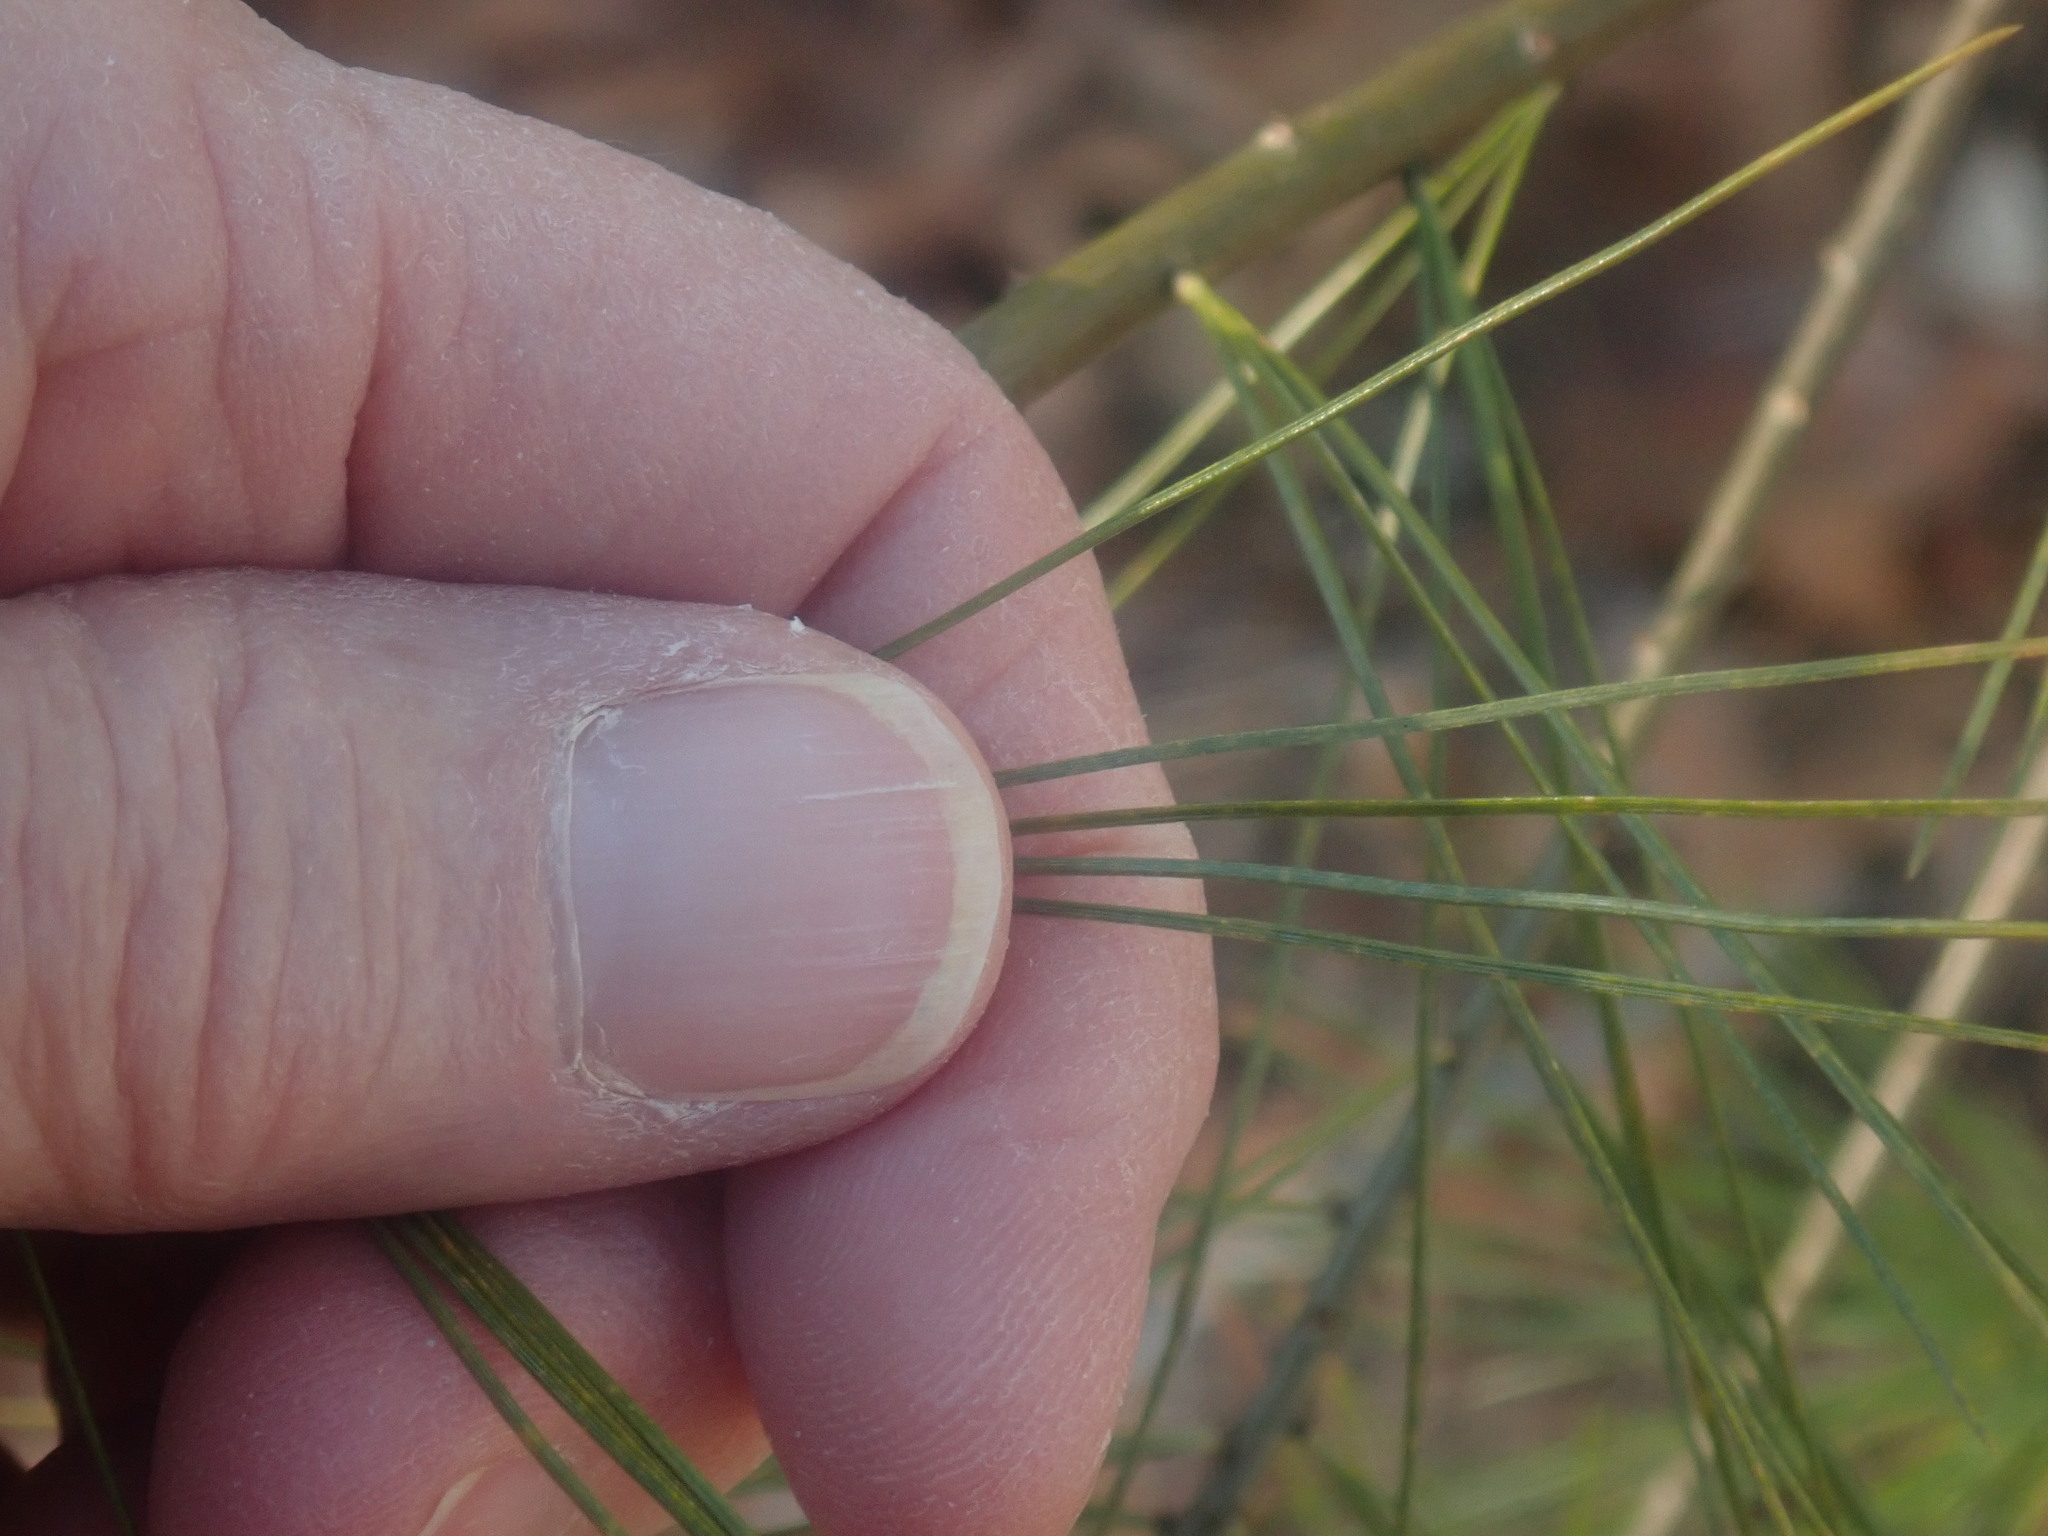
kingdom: Plantae
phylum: Tracheophyta
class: Pinopsida
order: Pinales
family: Pinaceae
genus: Pinus
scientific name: Pinus strobus
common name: Weymouth pine
